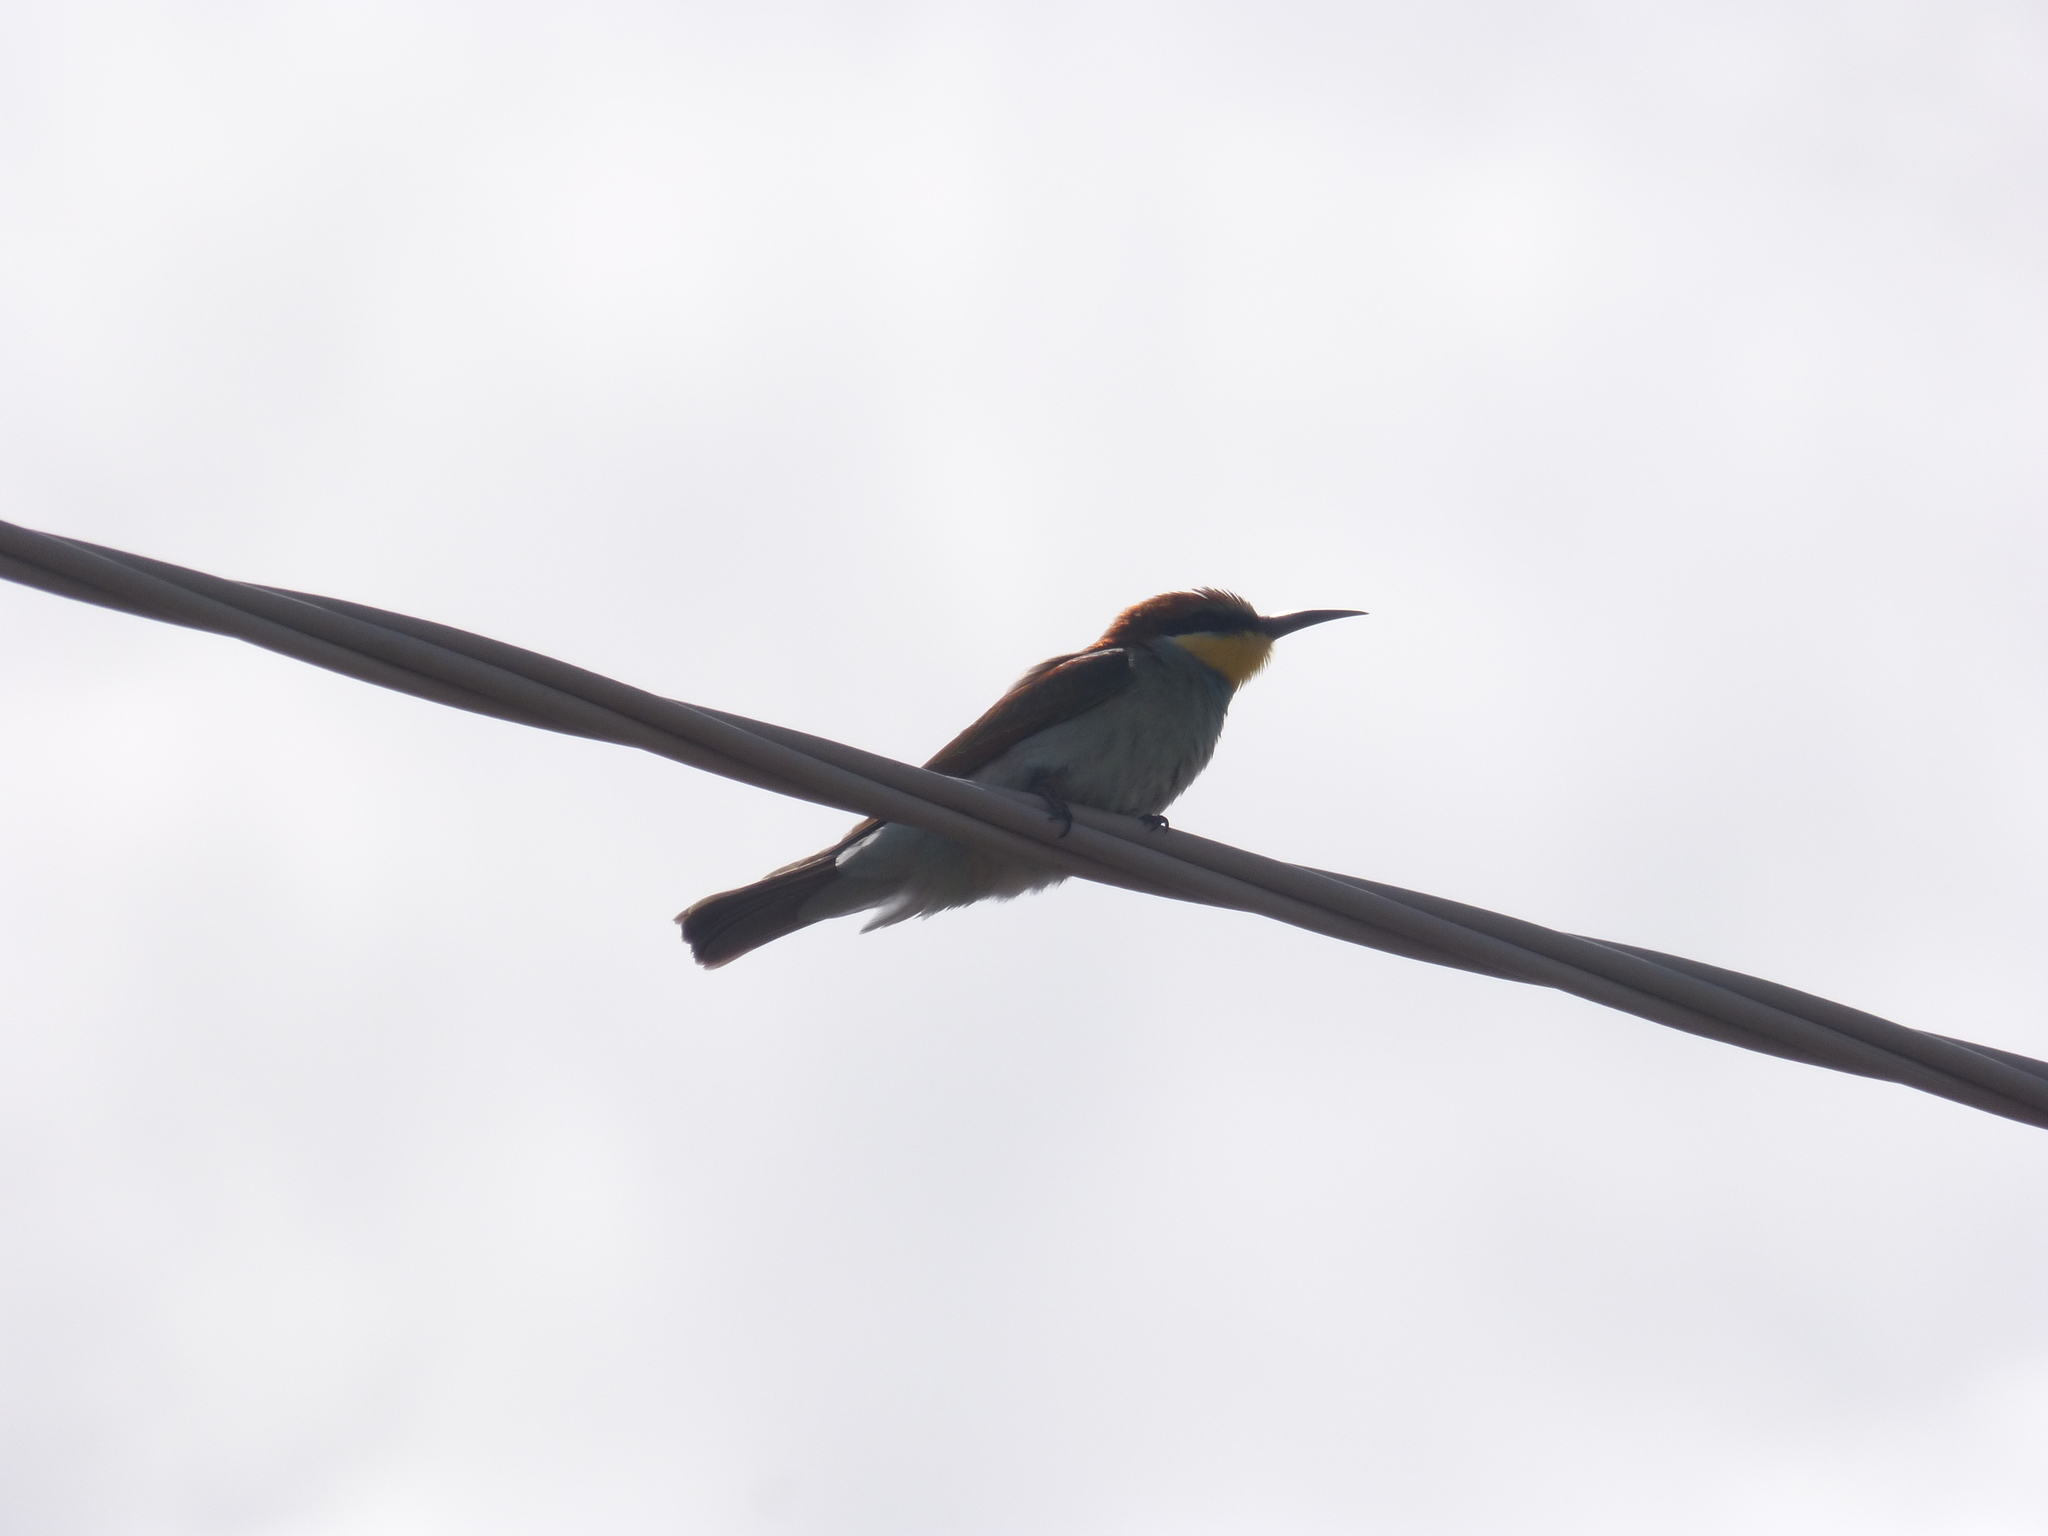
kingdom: Animalia
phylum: Chordata
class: Aves
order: Coraciiformes
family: Meropidae
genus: Merops
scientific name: Merops apiaster
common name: European bee-eater
